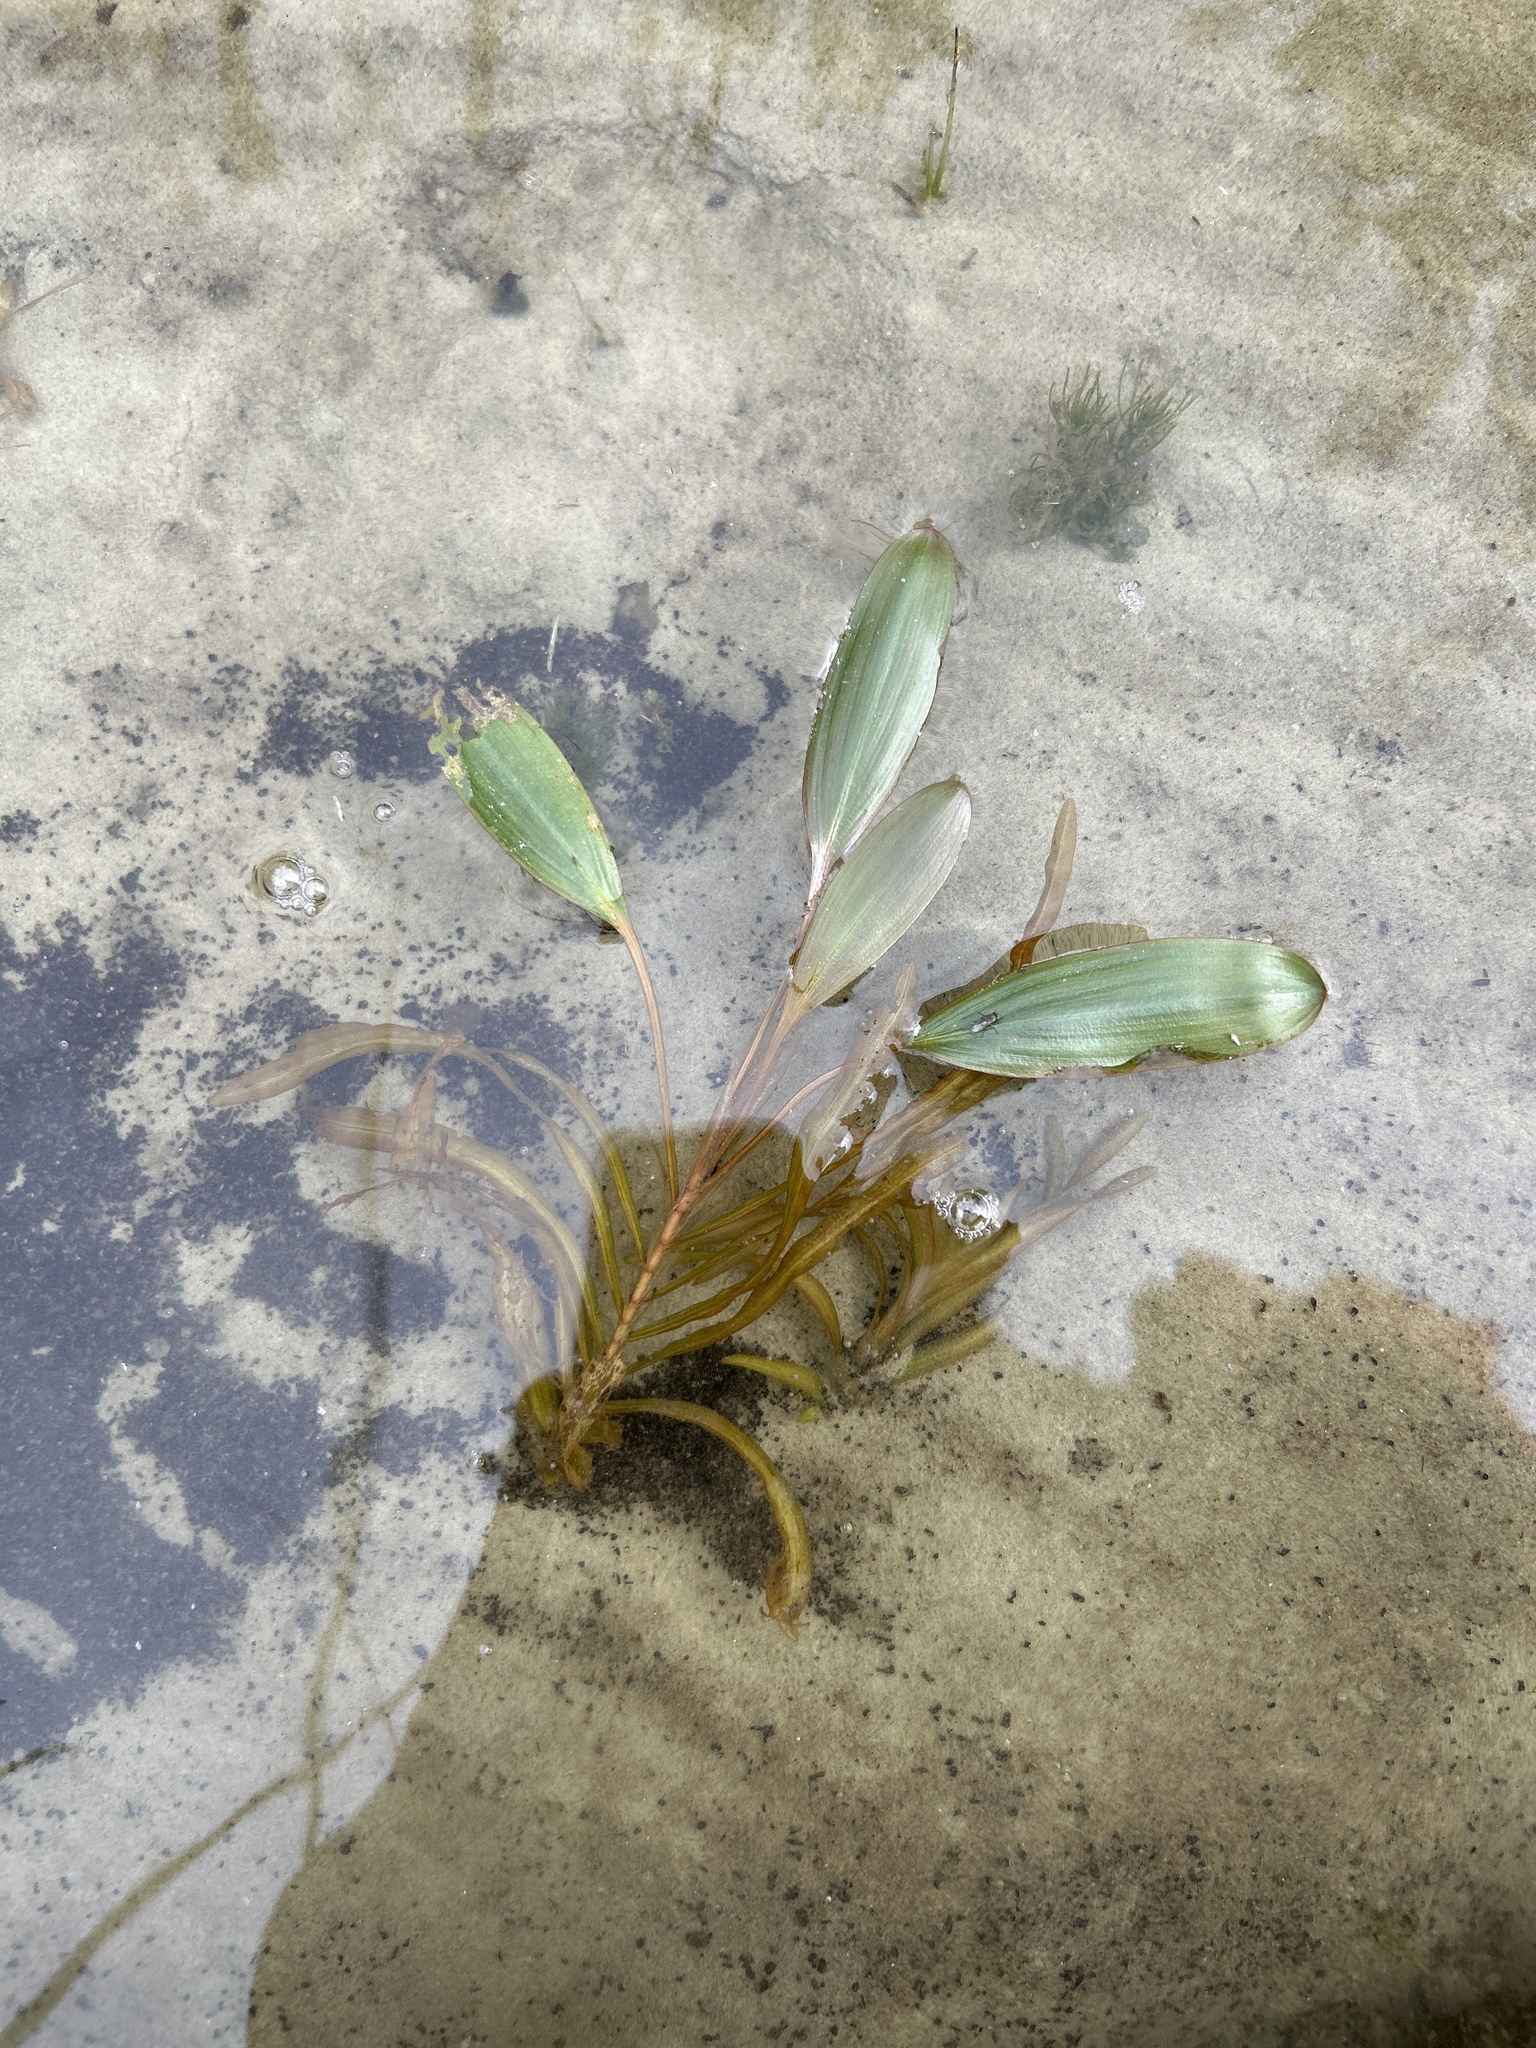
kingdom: Plantae
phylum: Tracheophyta
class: Liliopsida
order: Alismatales
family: Potamogetonaceae
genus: Potamogeton
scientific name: Potamogeton epihydrus
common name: American pondweed
